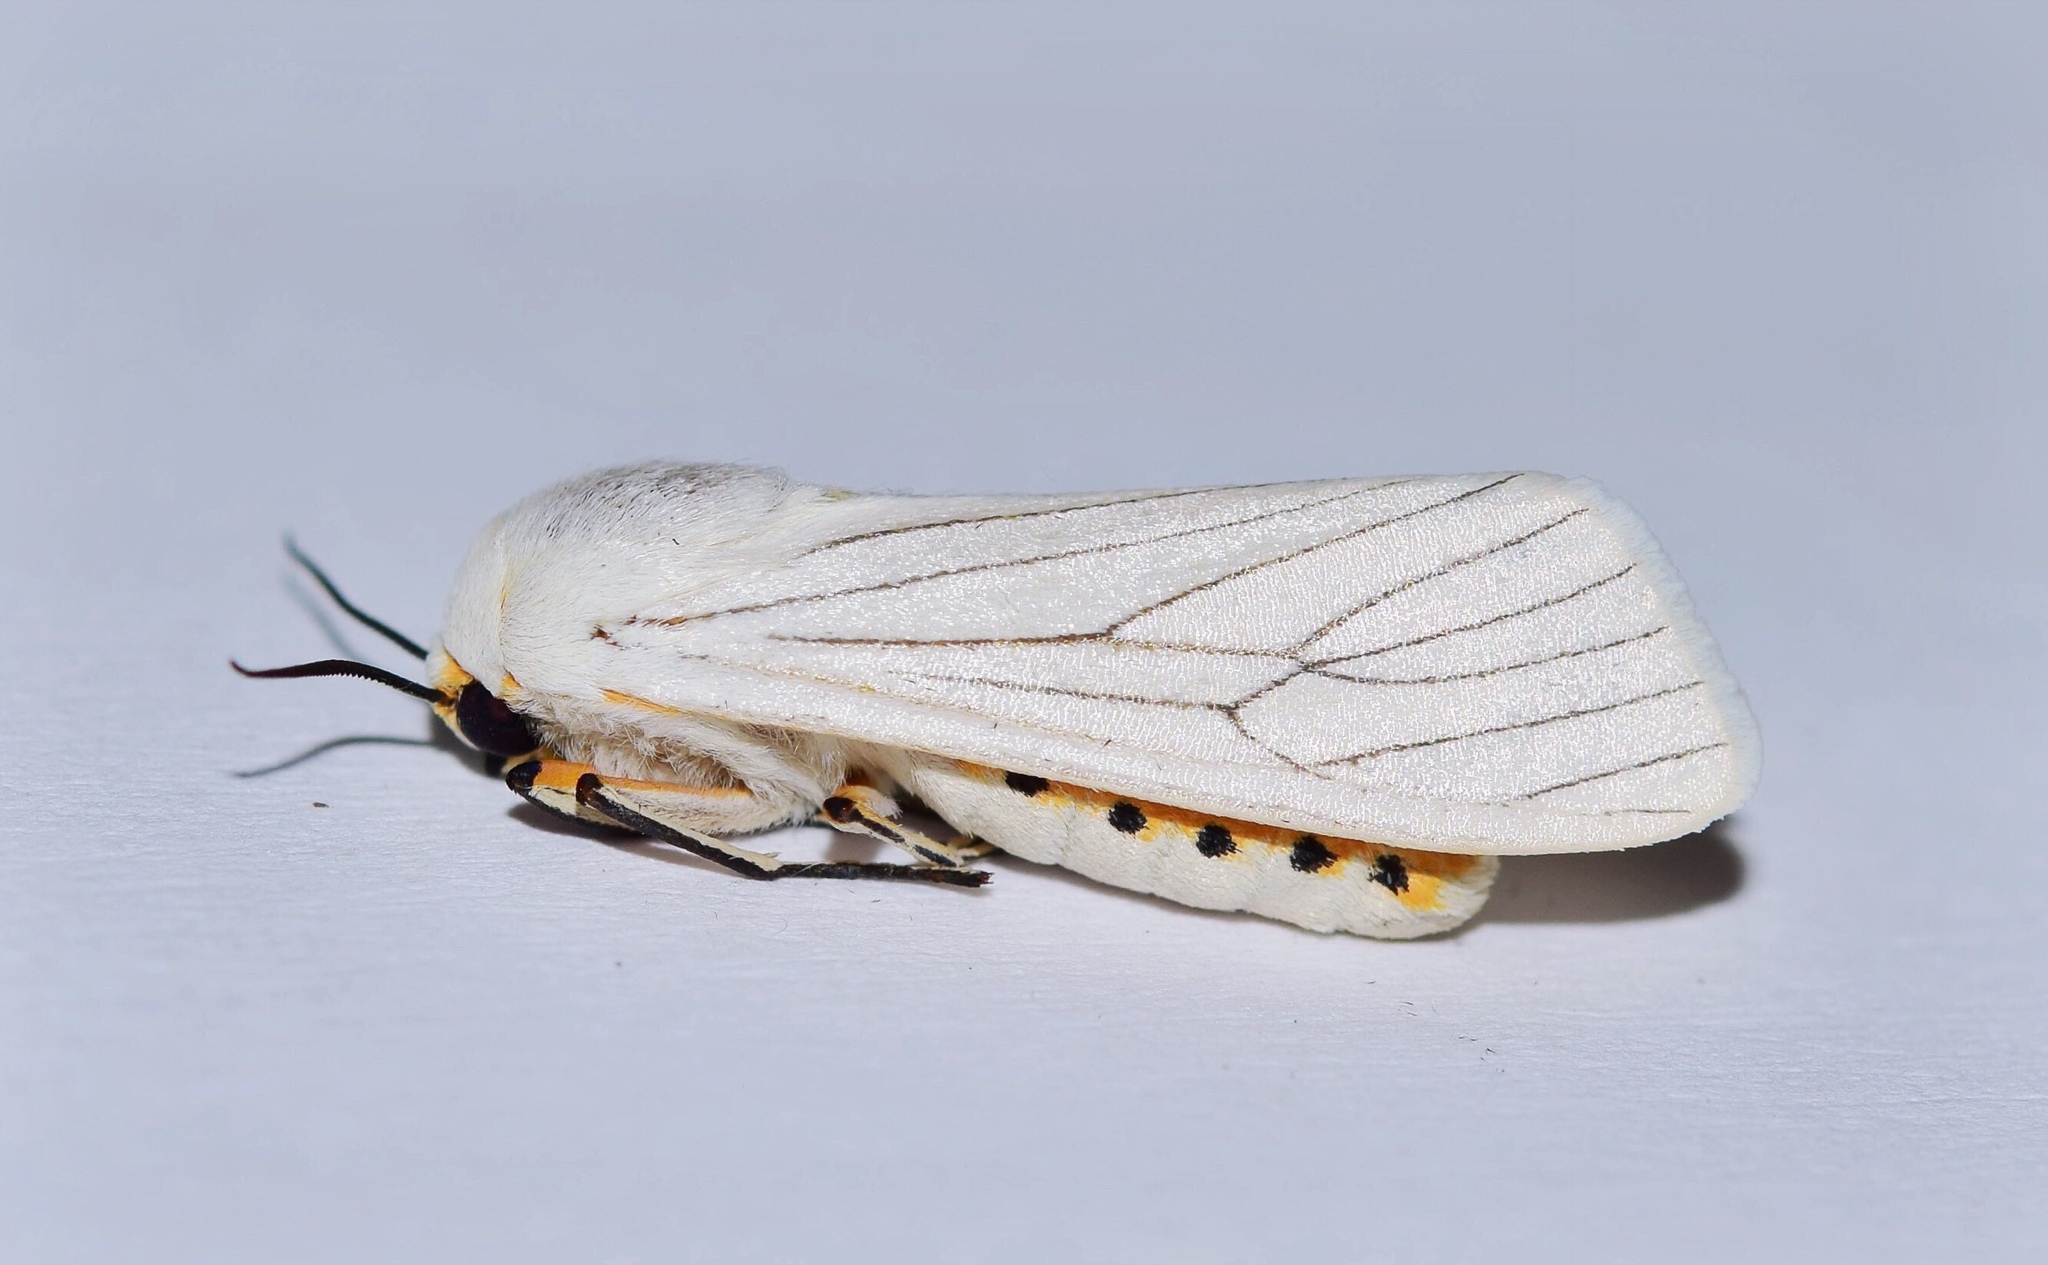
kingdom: Animalia
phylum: Arthropoda
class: Insecta
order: Lepidoptera
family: Erebidae
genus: Ustjuzhania
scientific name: Ustjuzhania lineata
